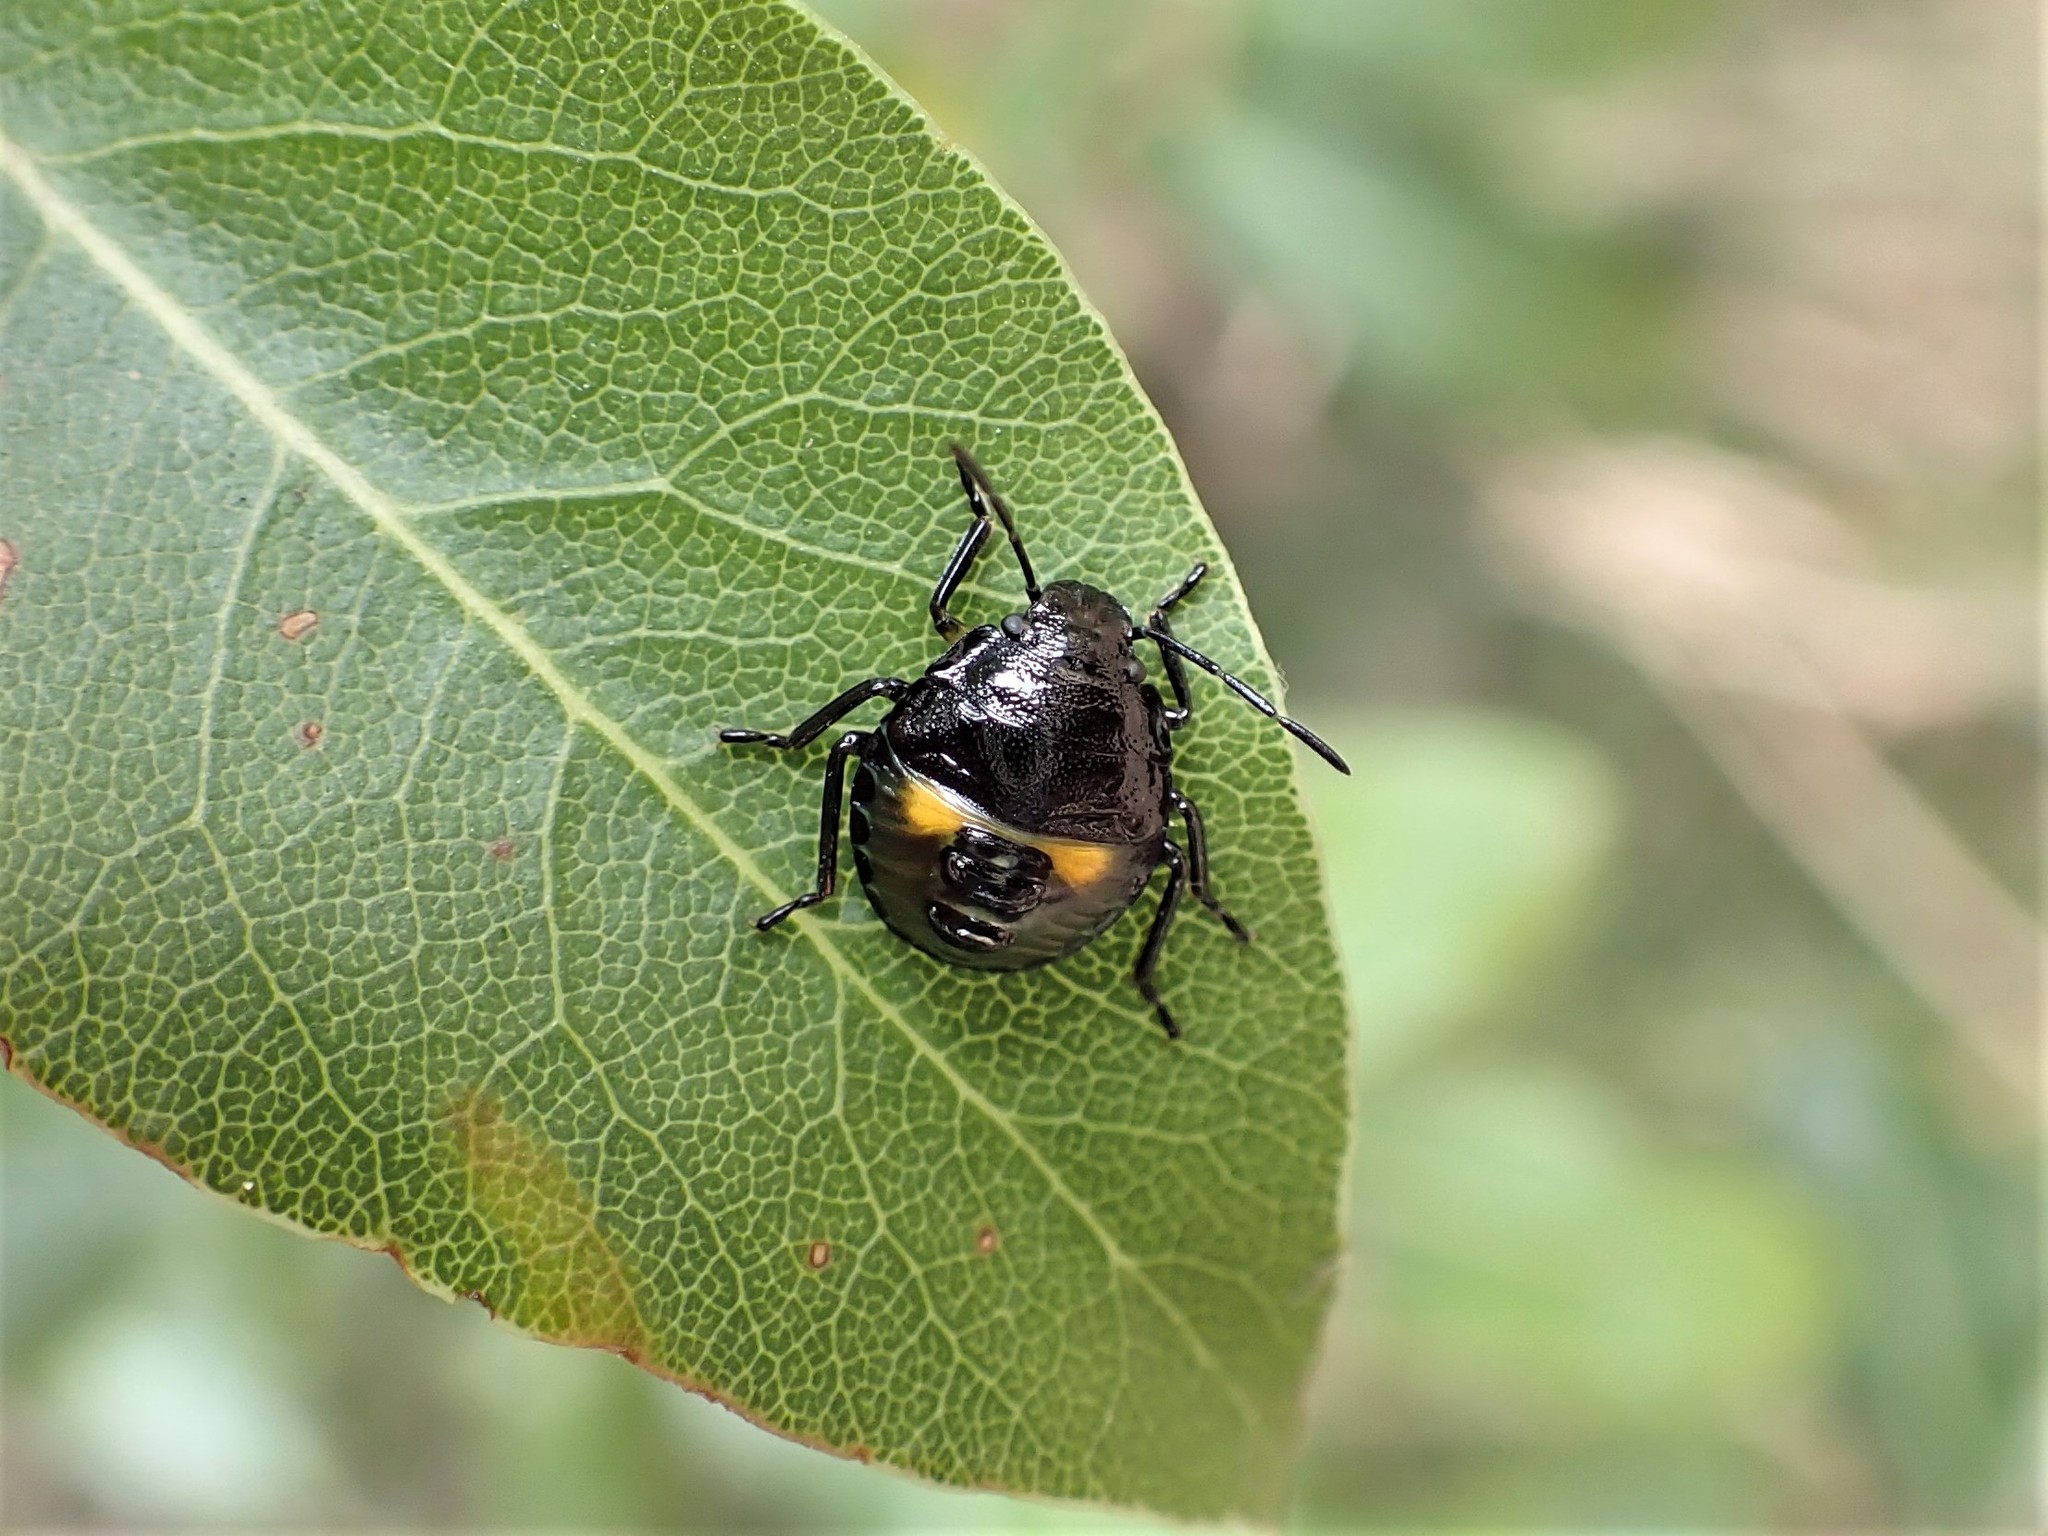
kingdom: Animalia
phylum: Arthropoda
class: Insecta
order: Hemiptera
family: Pentatomidae
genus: Glaucias
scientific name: Glaucias amyota
